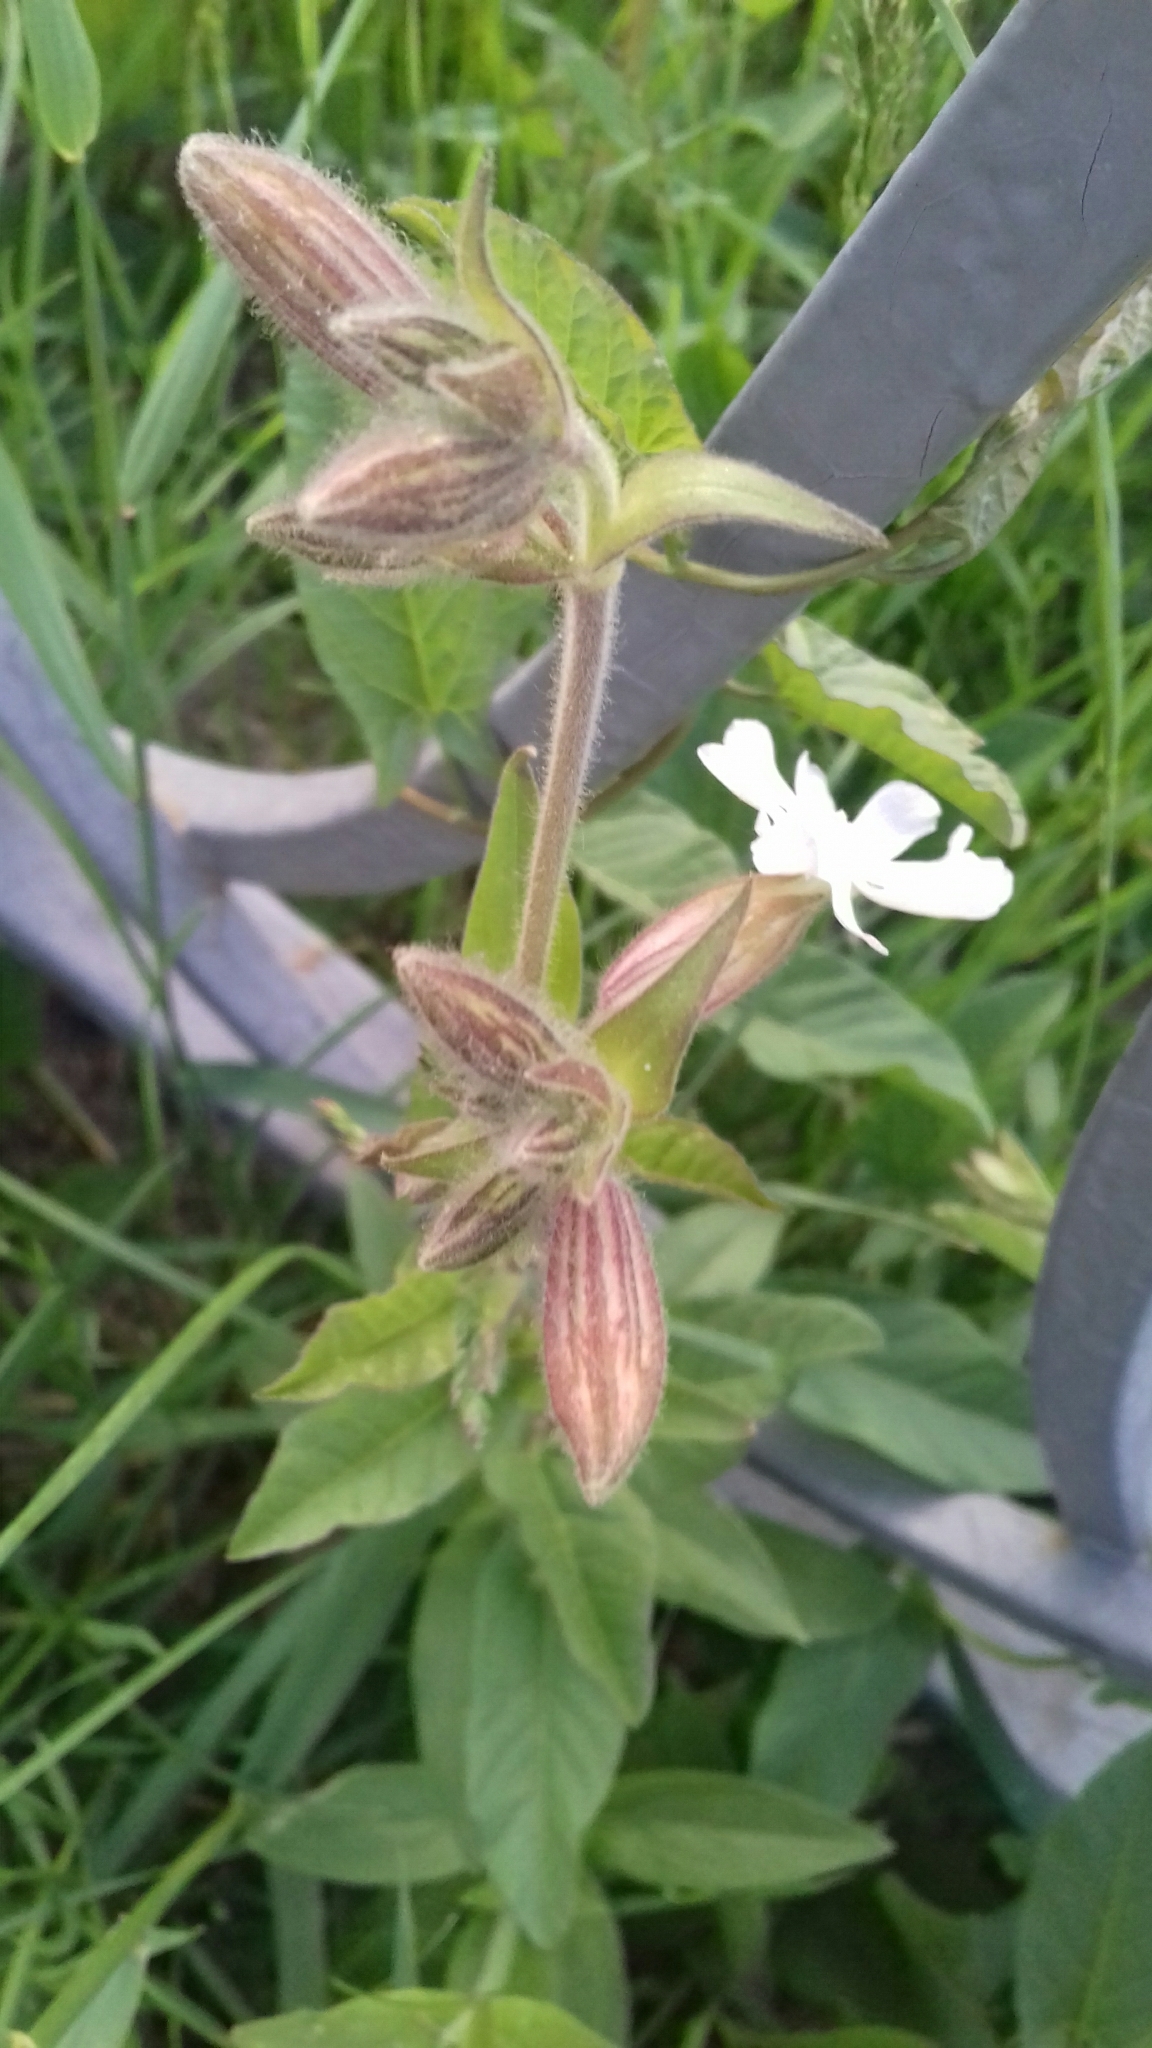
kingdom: Plantae
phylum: Tracheophyta
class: Magnoliopsida
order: Caryophyllales
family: Caryophyllaceae
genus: Silene
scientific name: Silene latifolia
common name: White campion
